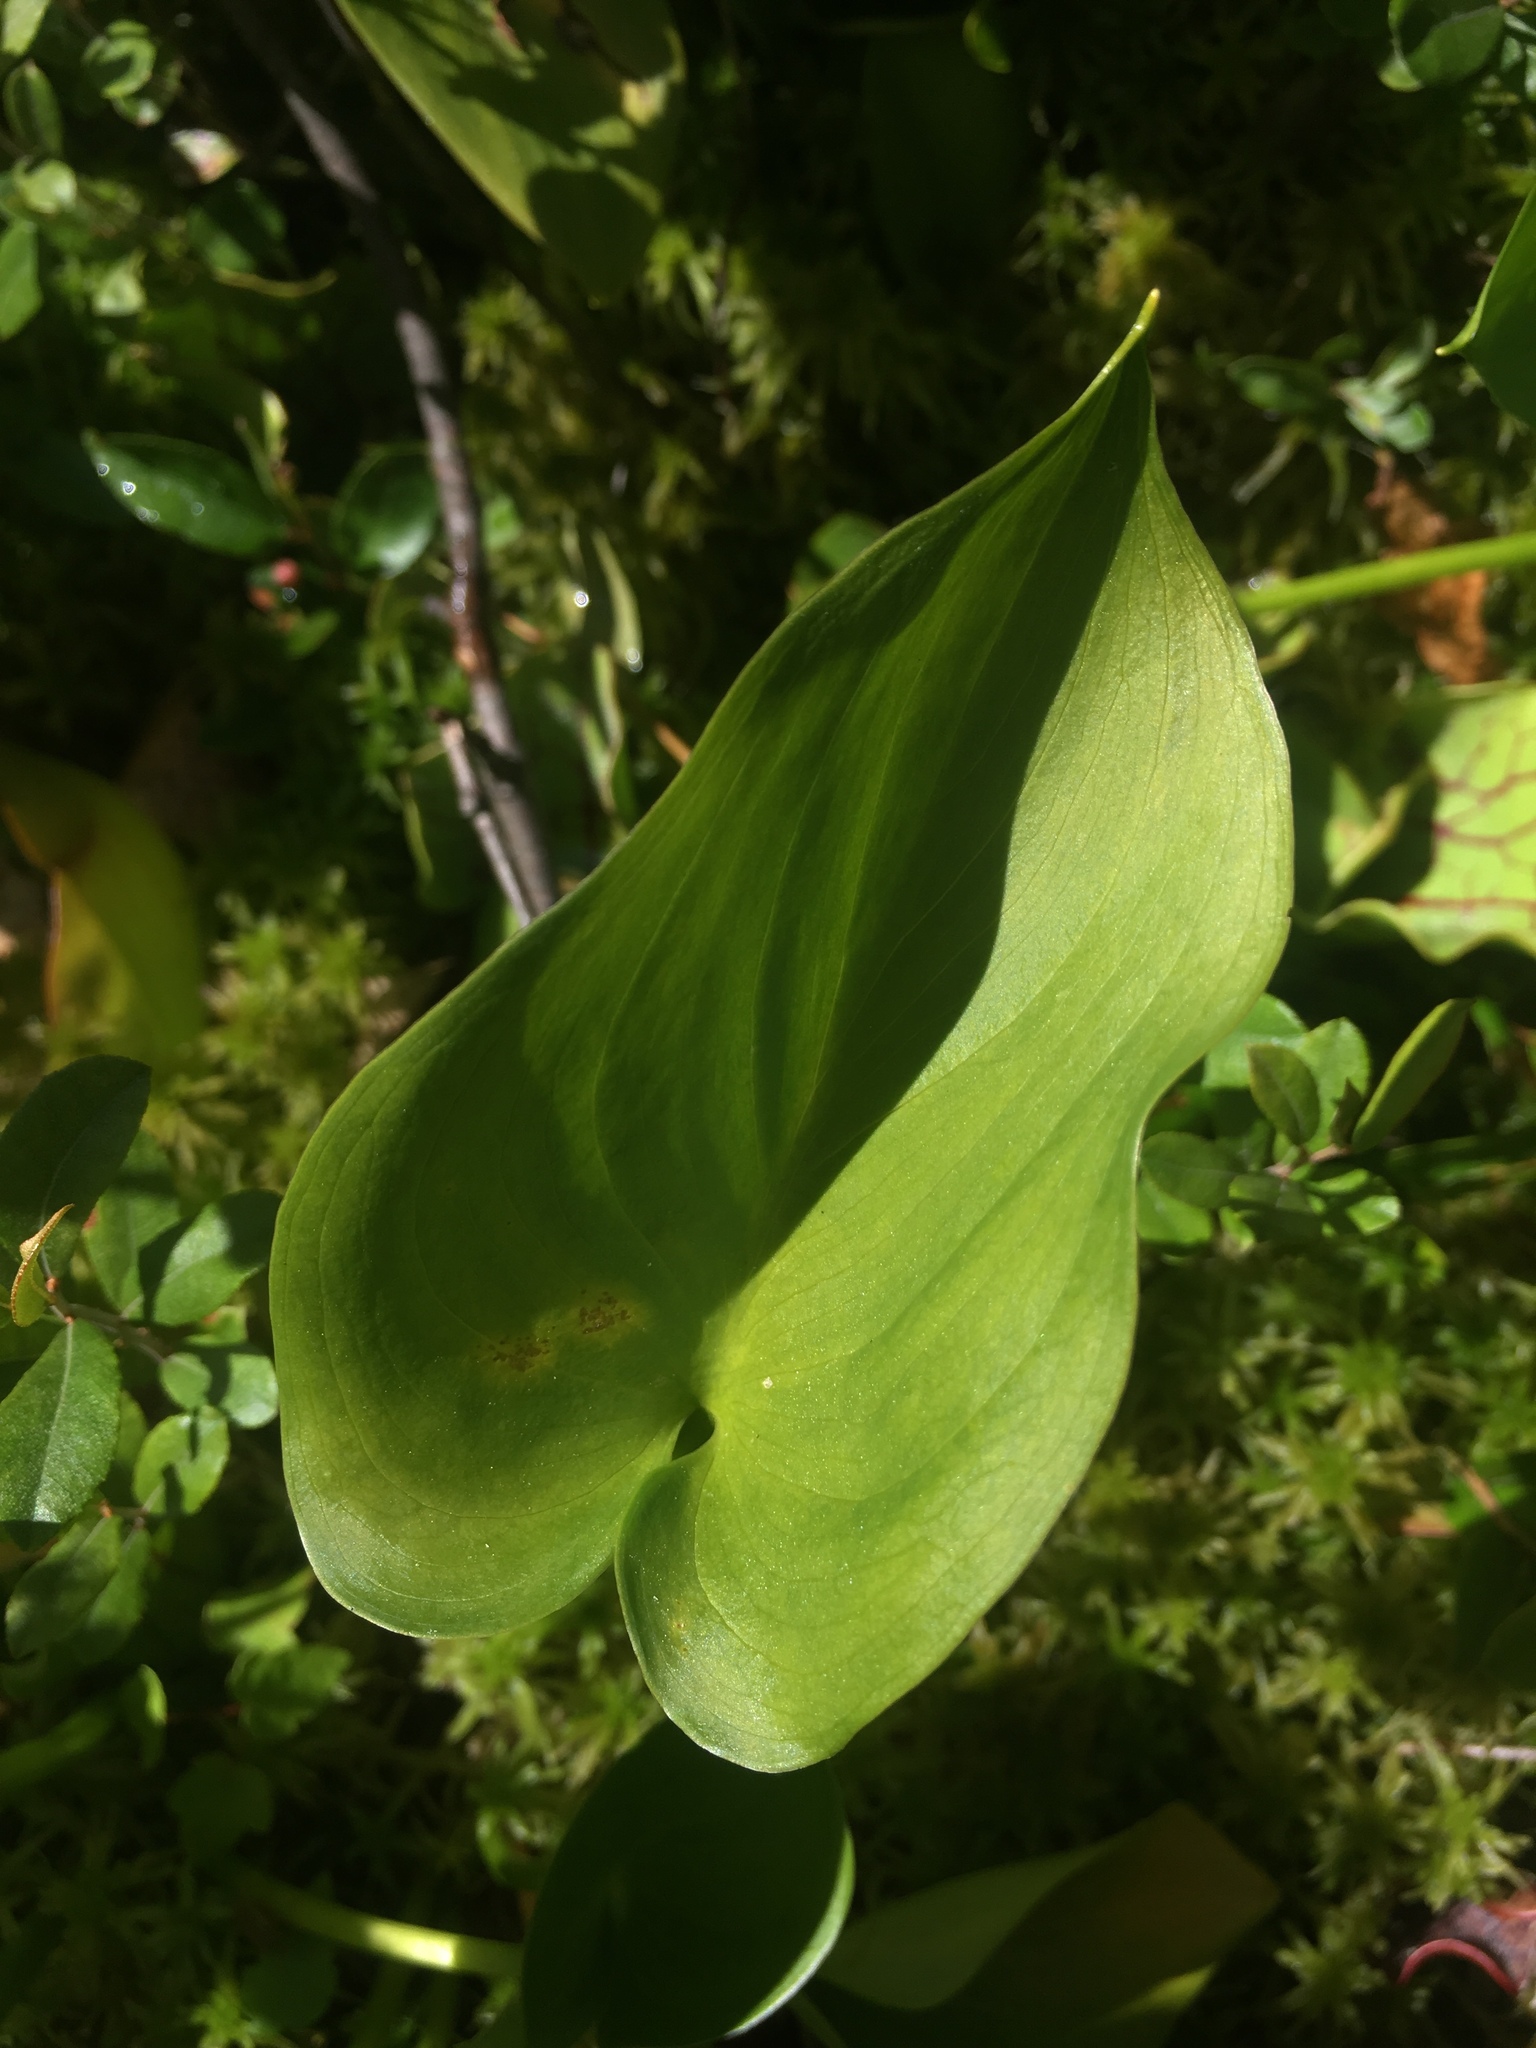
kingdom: Plantae
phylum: Tracheophyta
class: Liliopsida
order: Alismatales
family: Araceae
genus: Calla
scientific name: Calla palustris
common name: Bog arum
